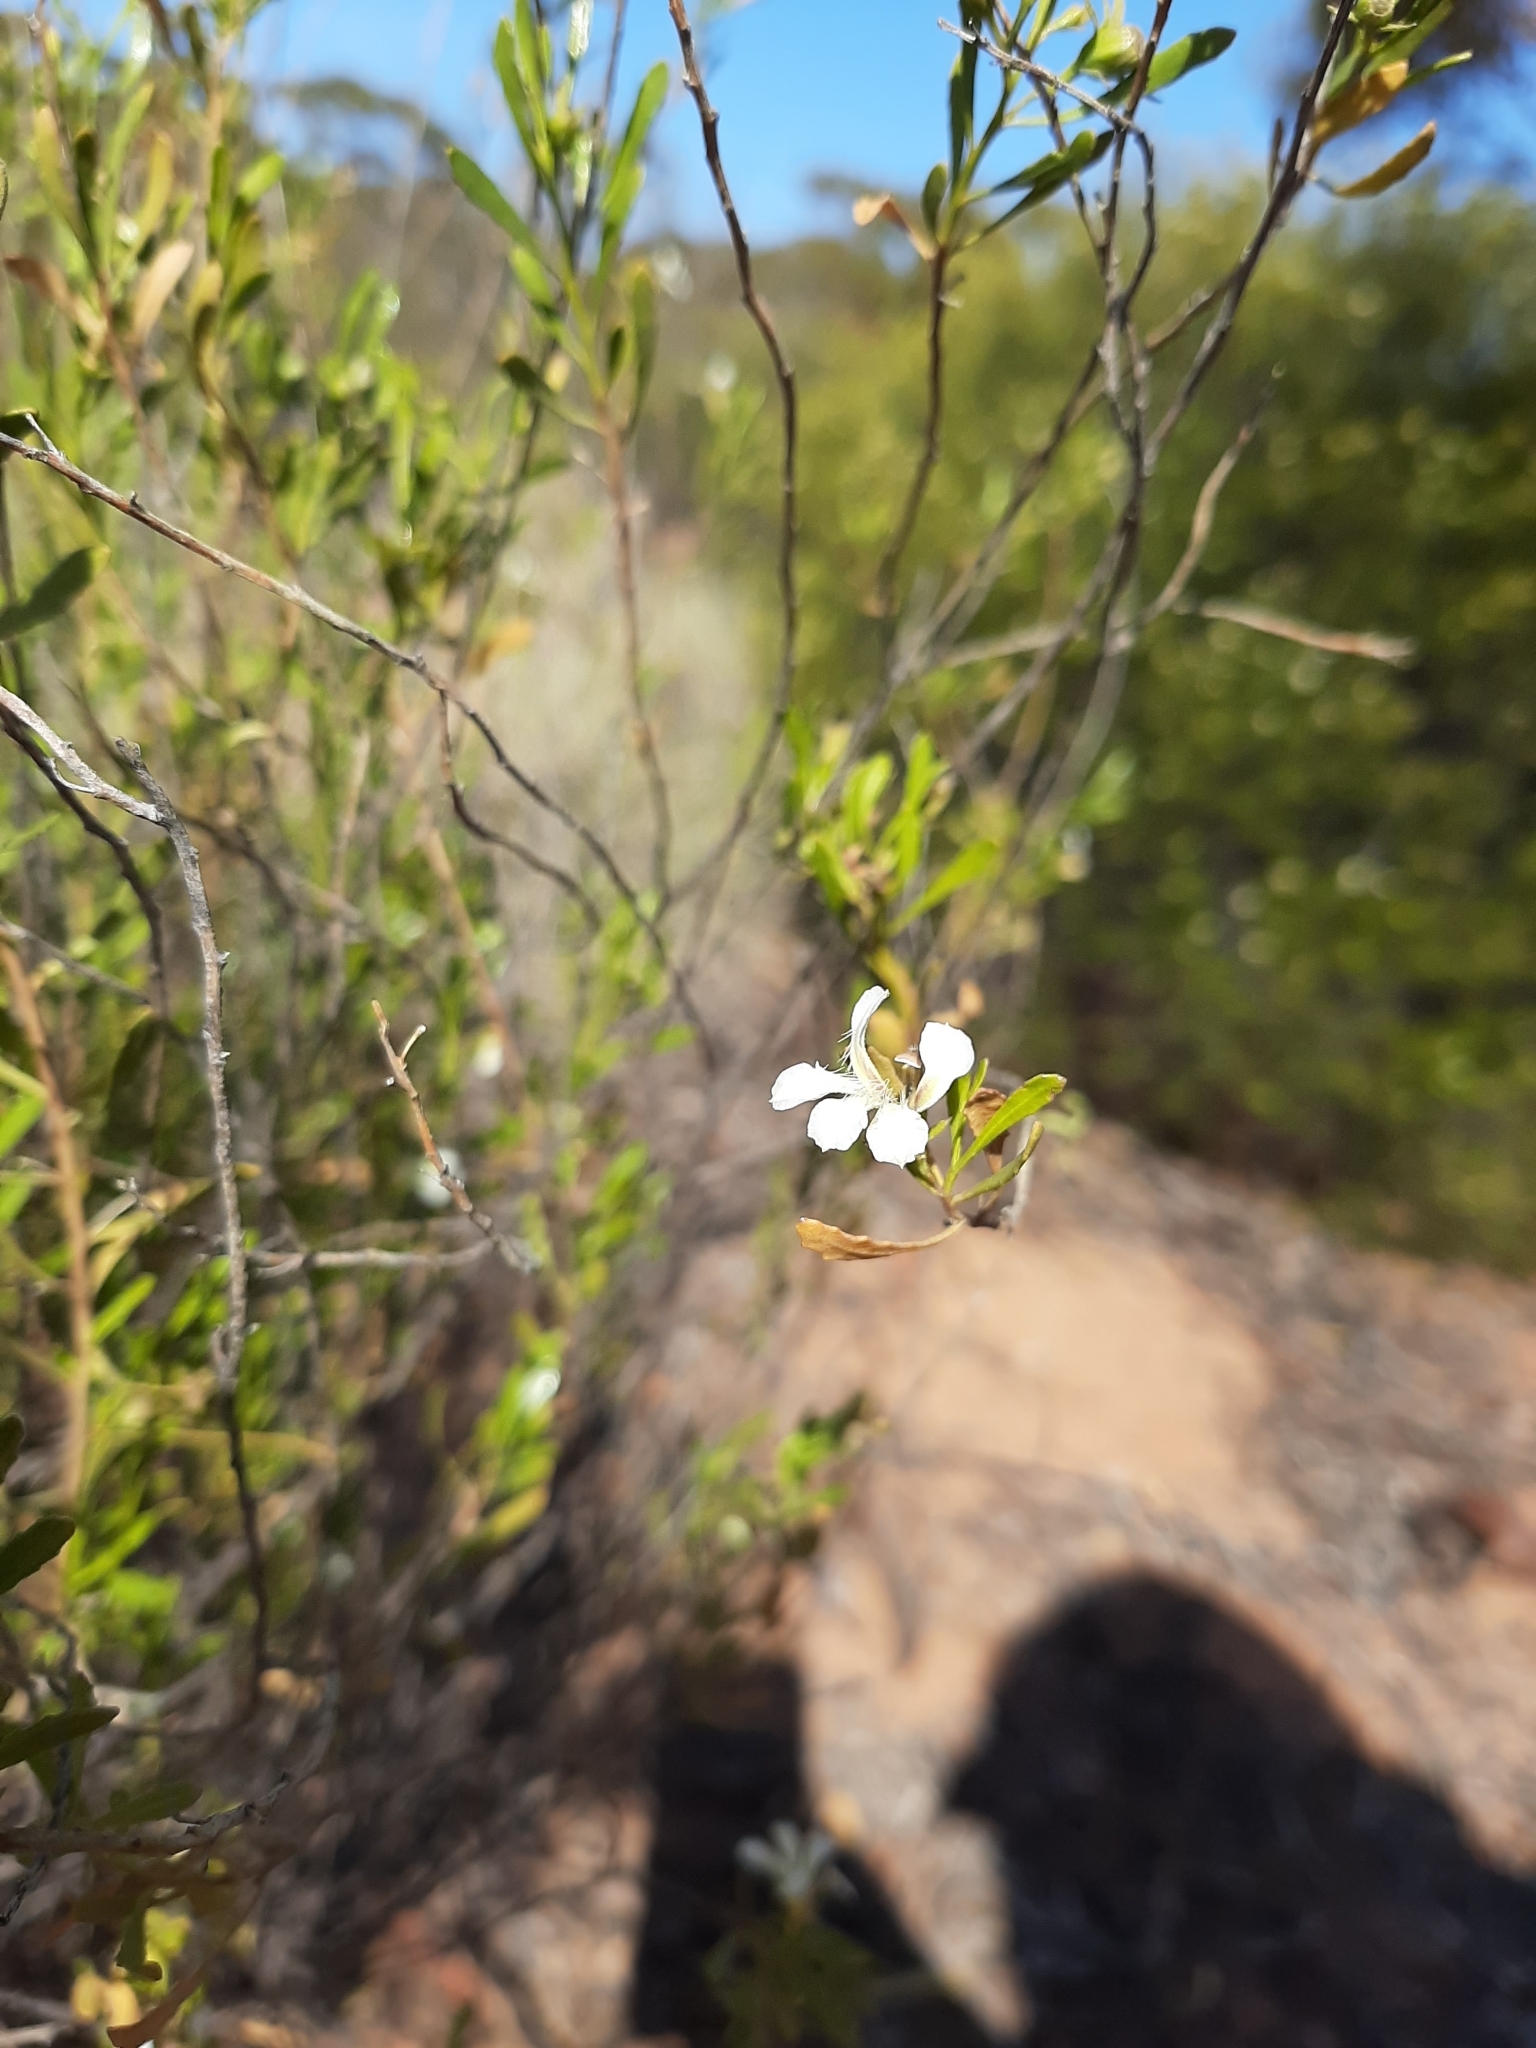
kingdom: Plantae
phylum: Tracheophyta
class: Magnoliopsida
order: Asterales
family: Goodeniaceae
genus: Goodenia
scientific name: Goodenia strophiolata
